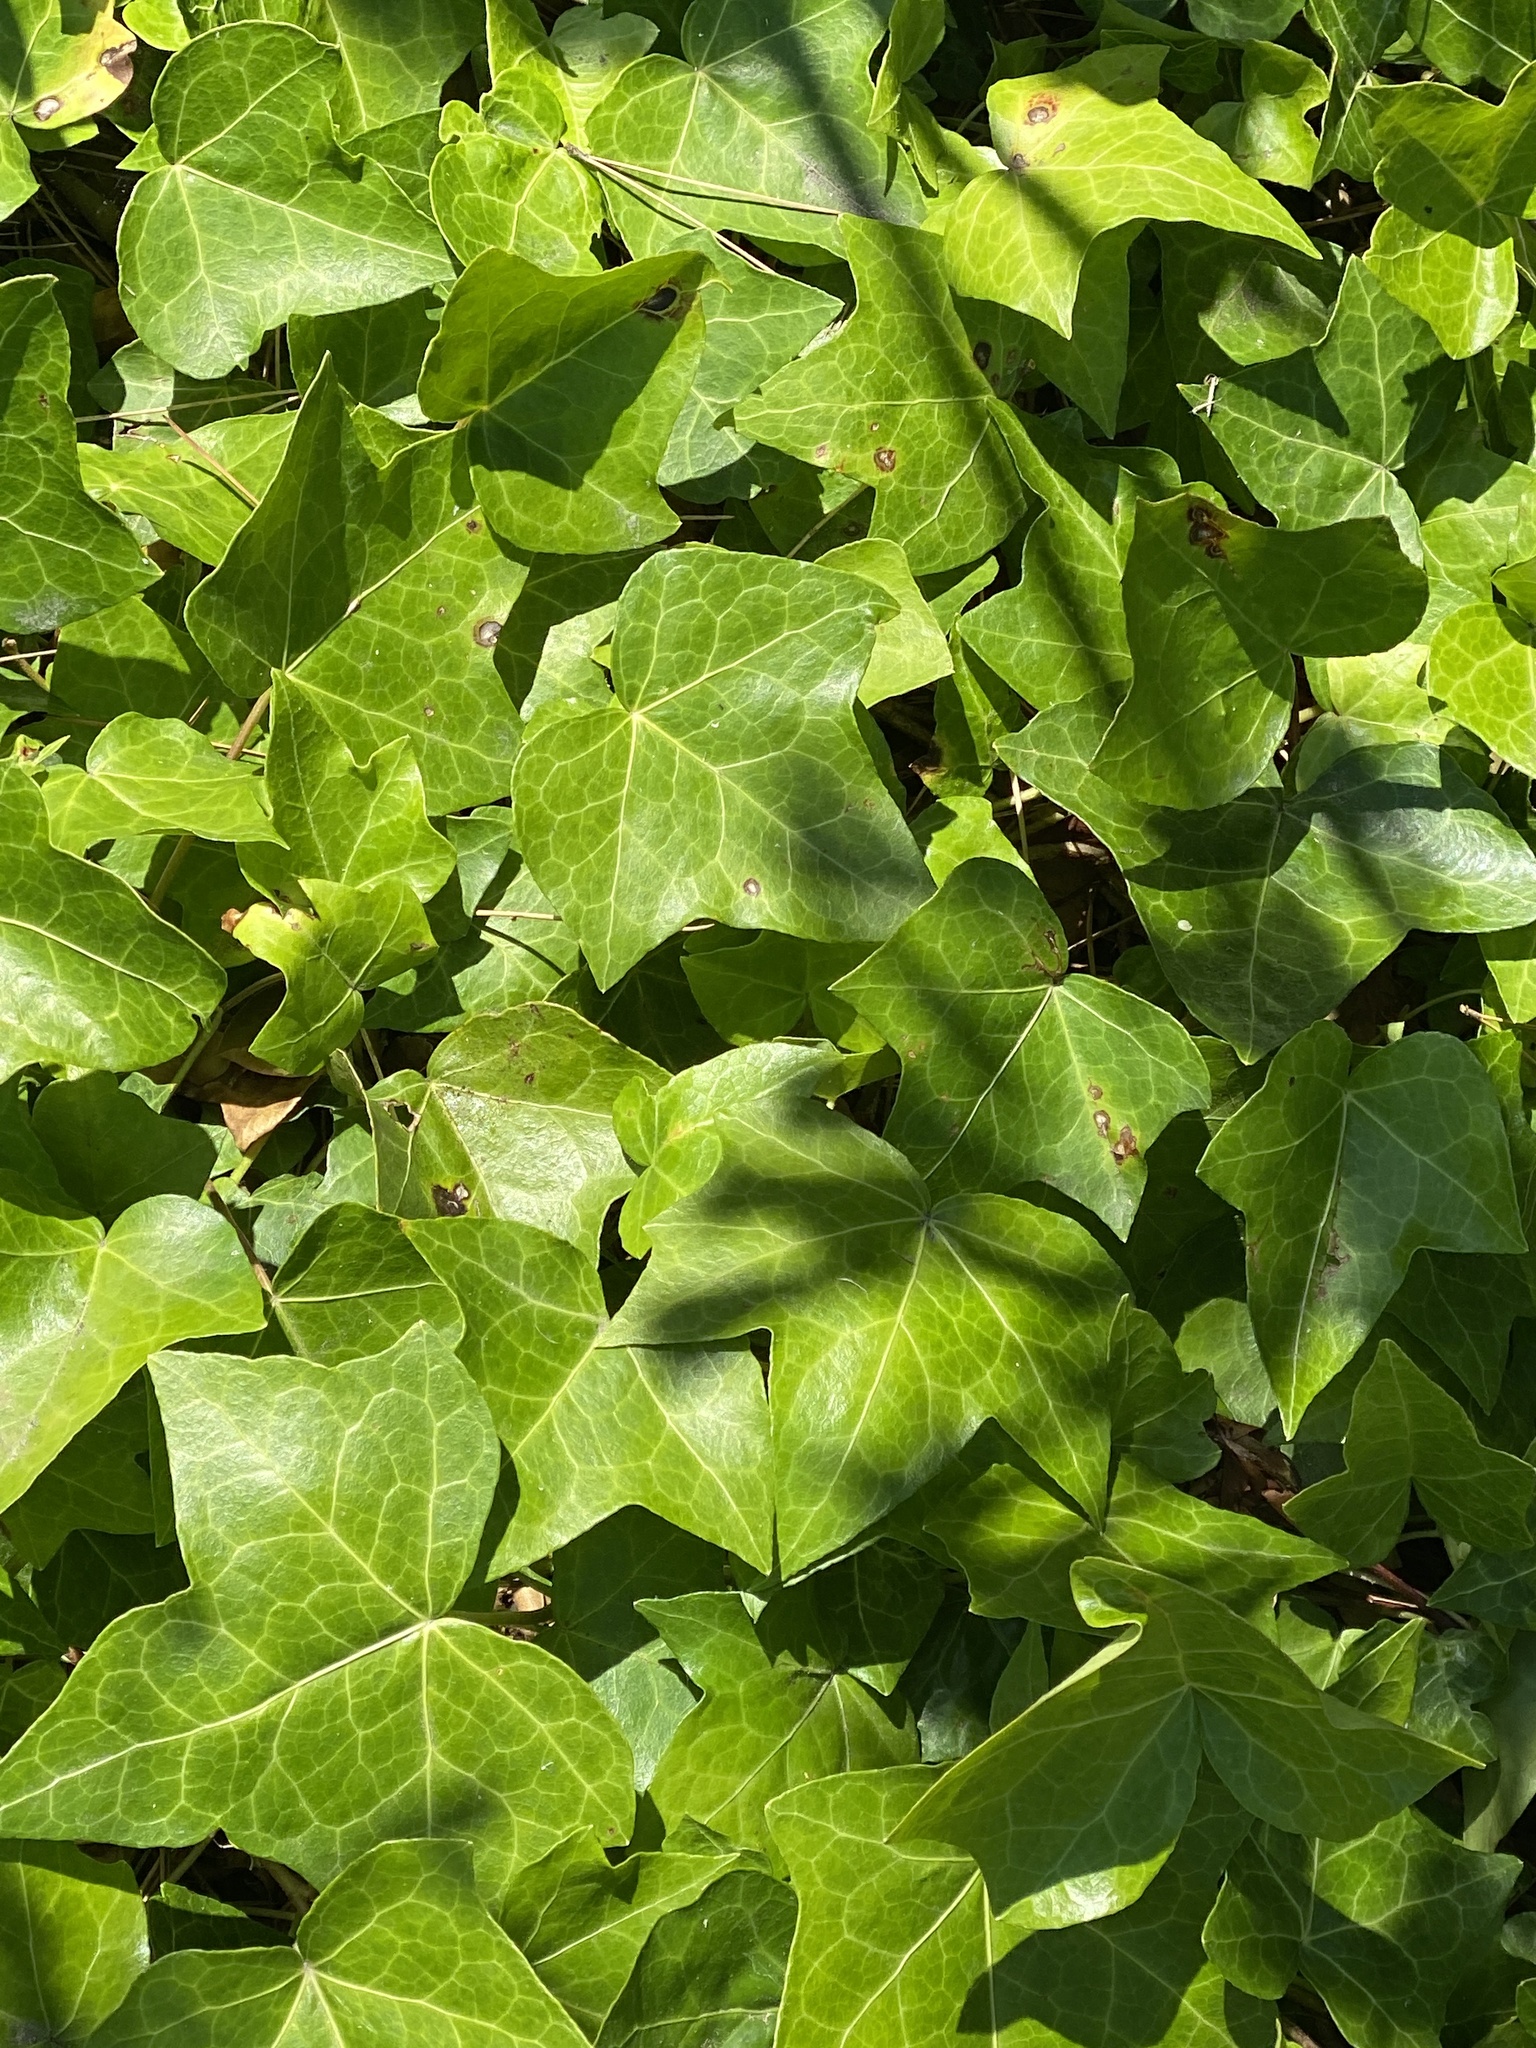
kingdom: Plantae
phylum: Tracheophyta
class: Magnoliopsida
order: Apiales
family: Araliaceae
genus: Hedera
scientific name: Hedera helix
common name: Ivy
